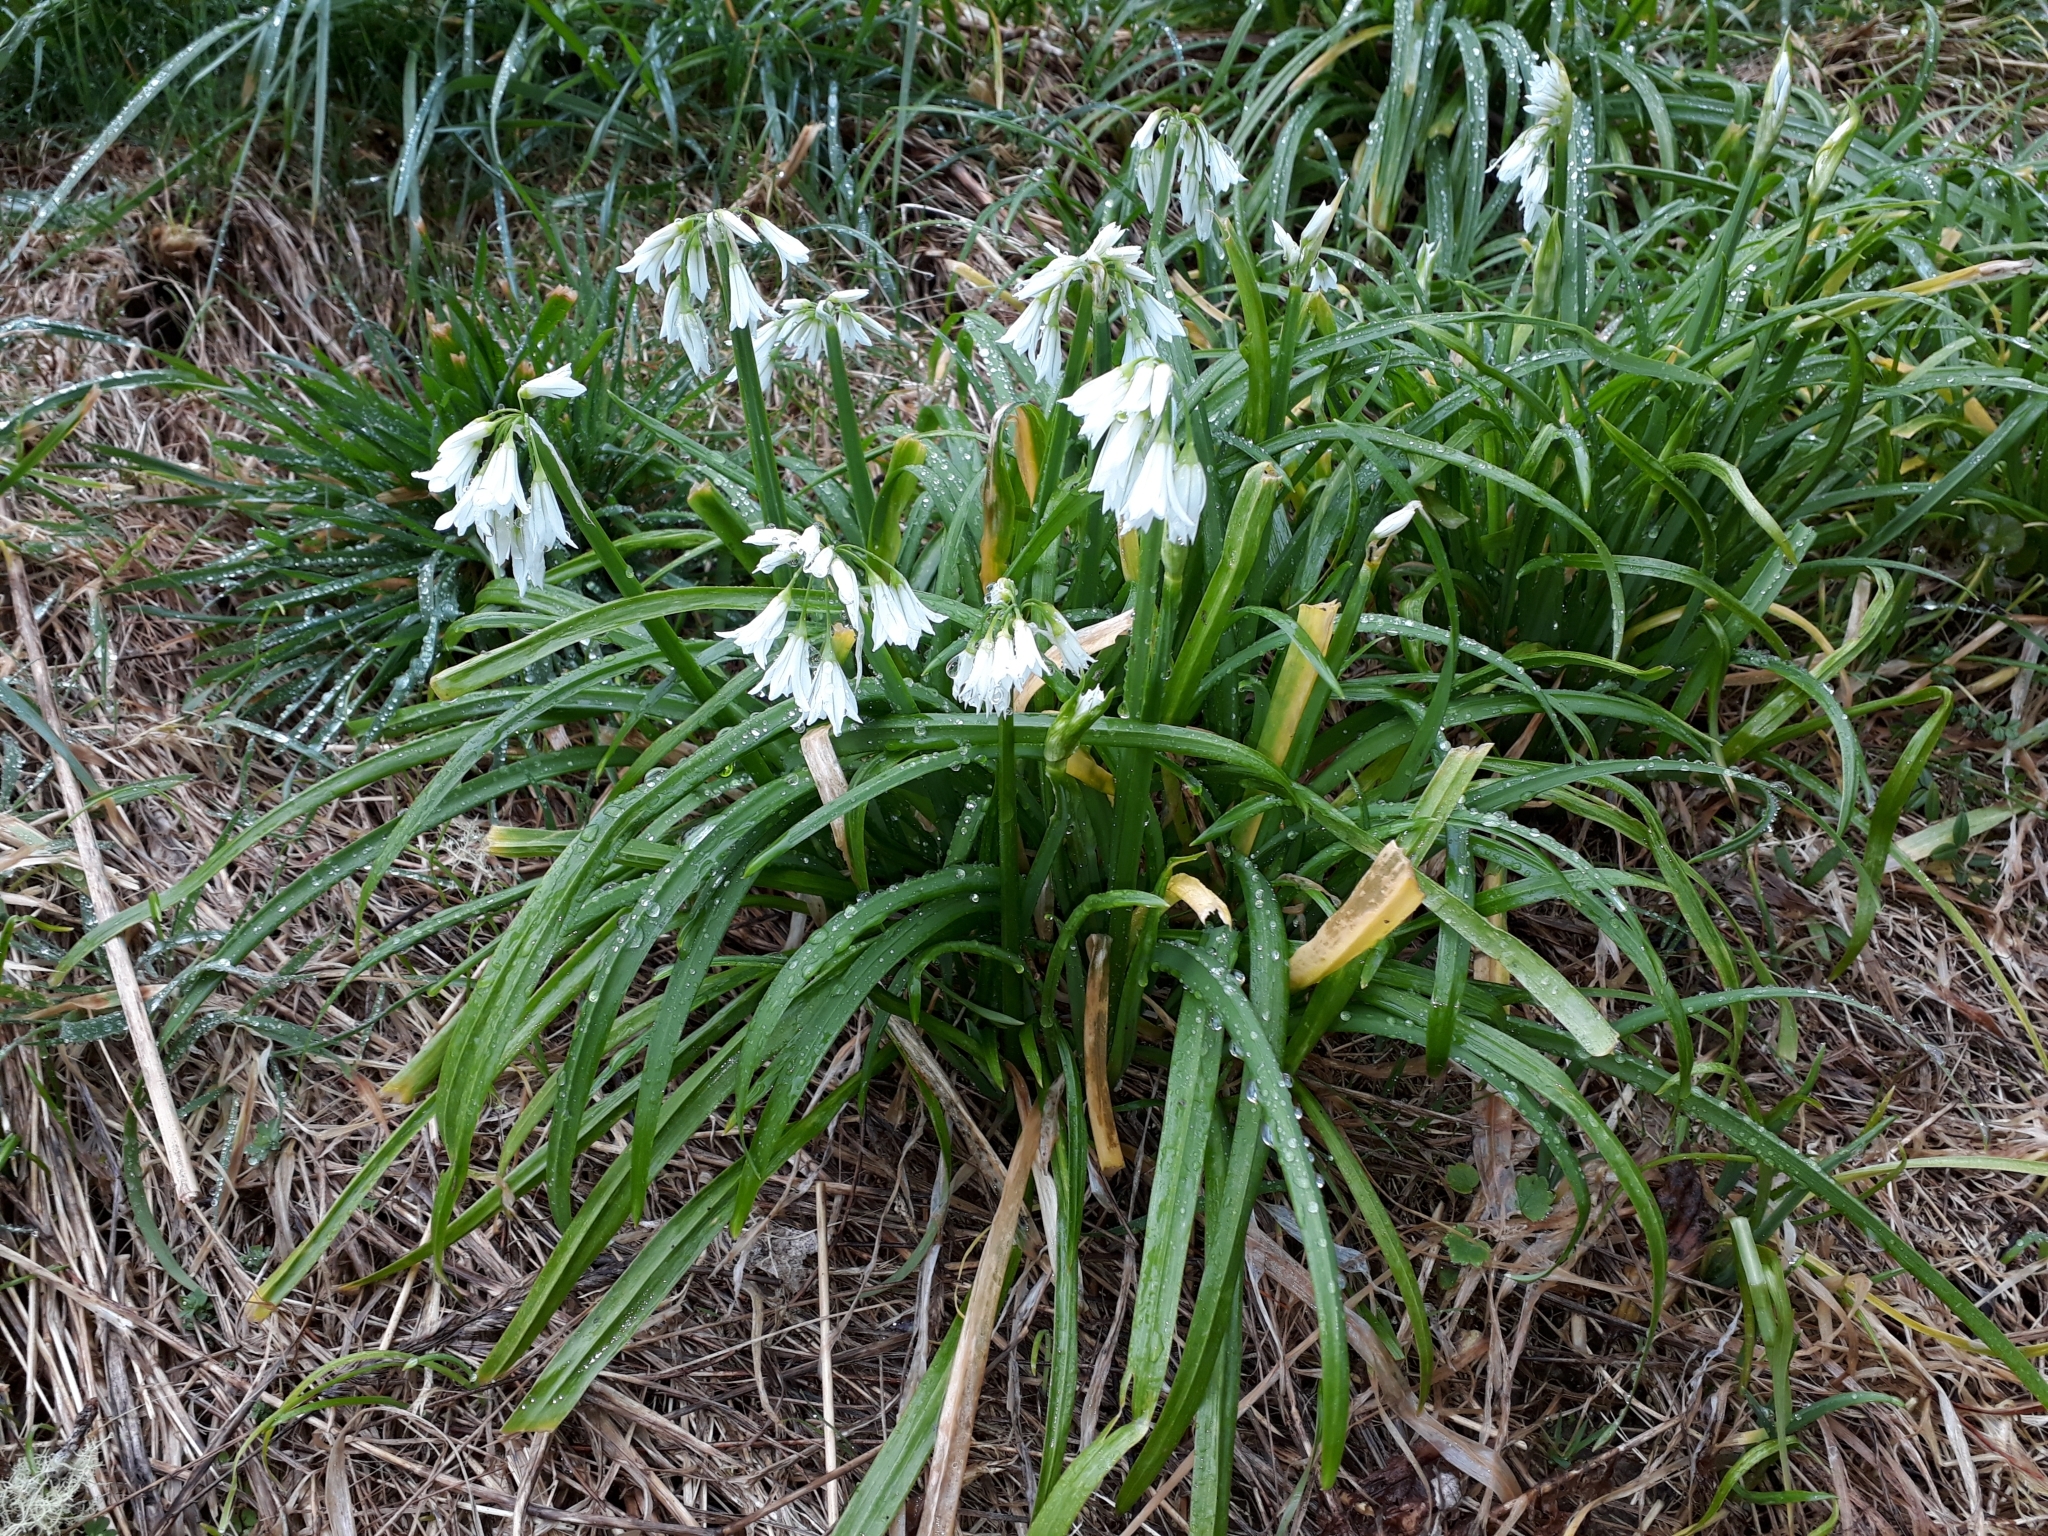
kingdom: Plantae
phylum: Tracheophyta
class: Liliopsida
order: Asparagales
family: Amaryllidaceae
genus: Allium
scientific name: Allium triquetrum
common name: Three-cornered garlic
